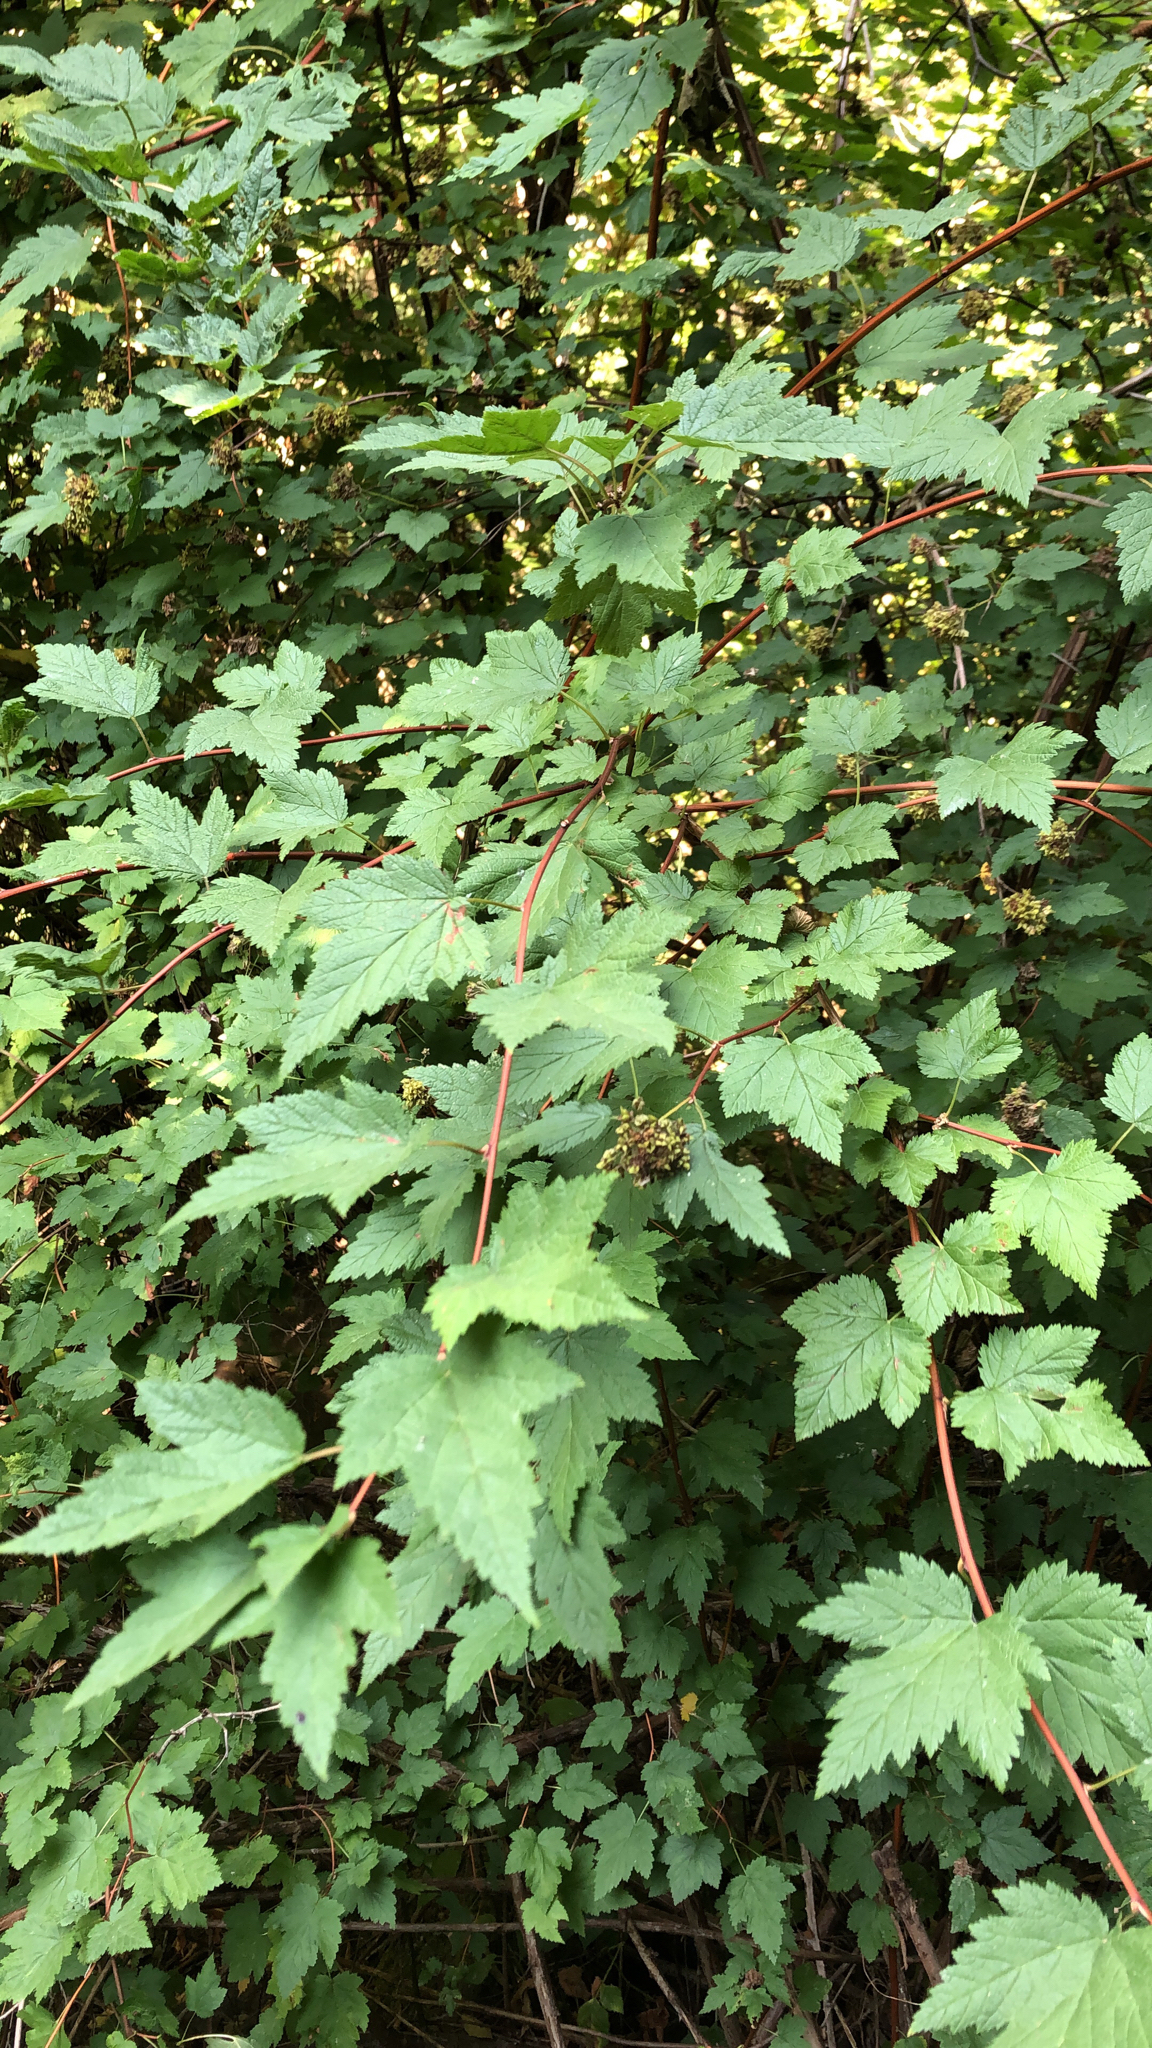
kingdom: Plantae
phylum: Tracheophyta
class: Magnoliopsida
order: Rosales
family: Rosaceae
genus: Physocarpus
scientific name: Physocarpus capitatus
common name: Pacific ninebark
